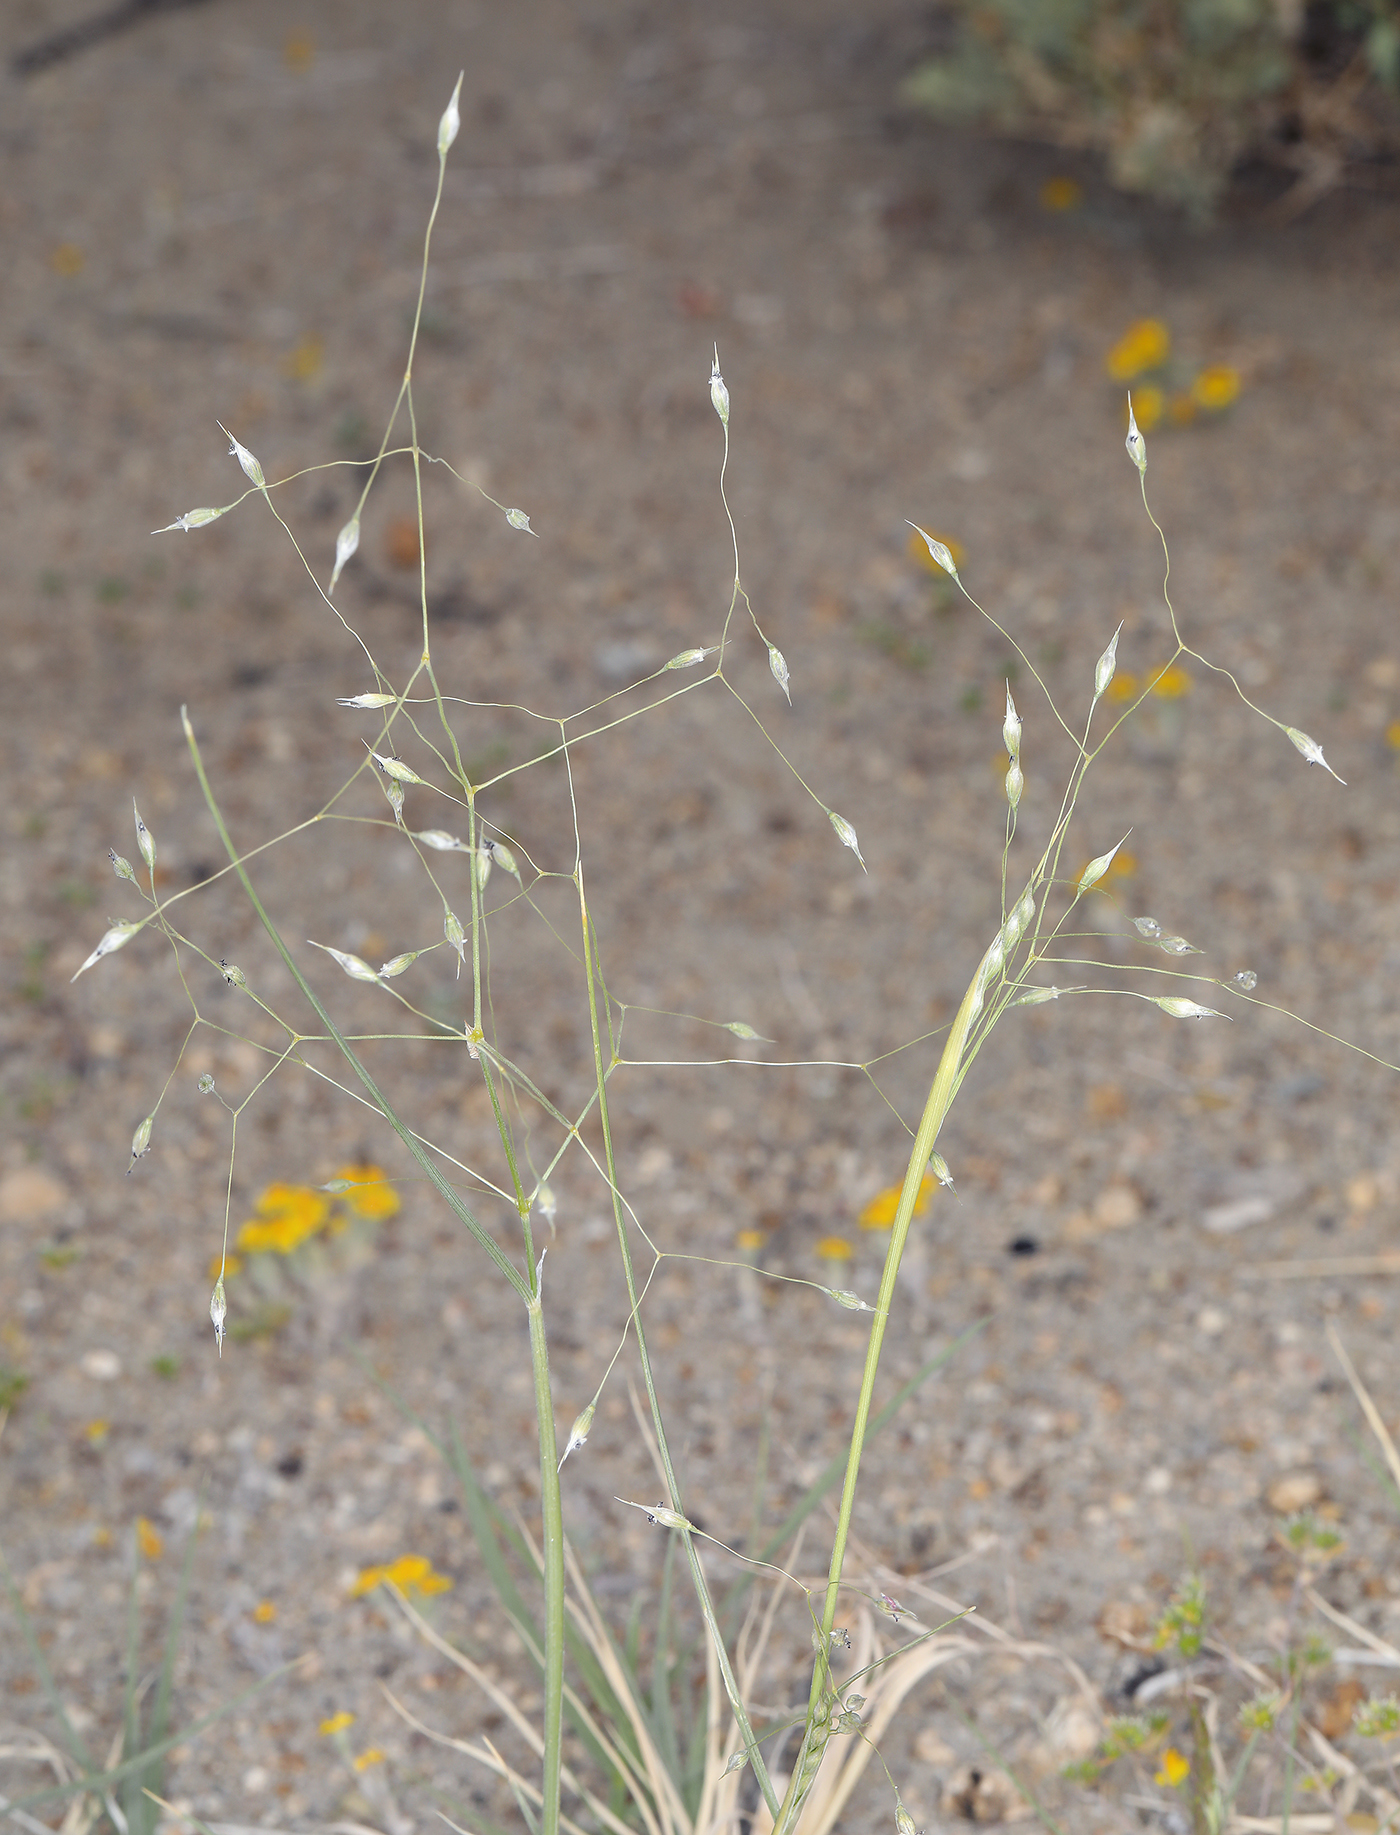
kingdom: Plantae
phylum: Tracheophyta
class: Liliopsida
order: Poales
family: Poaceae
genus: Eriocoma
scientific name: Eriocoma hymenoides
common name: Indian mountain ricegrass
